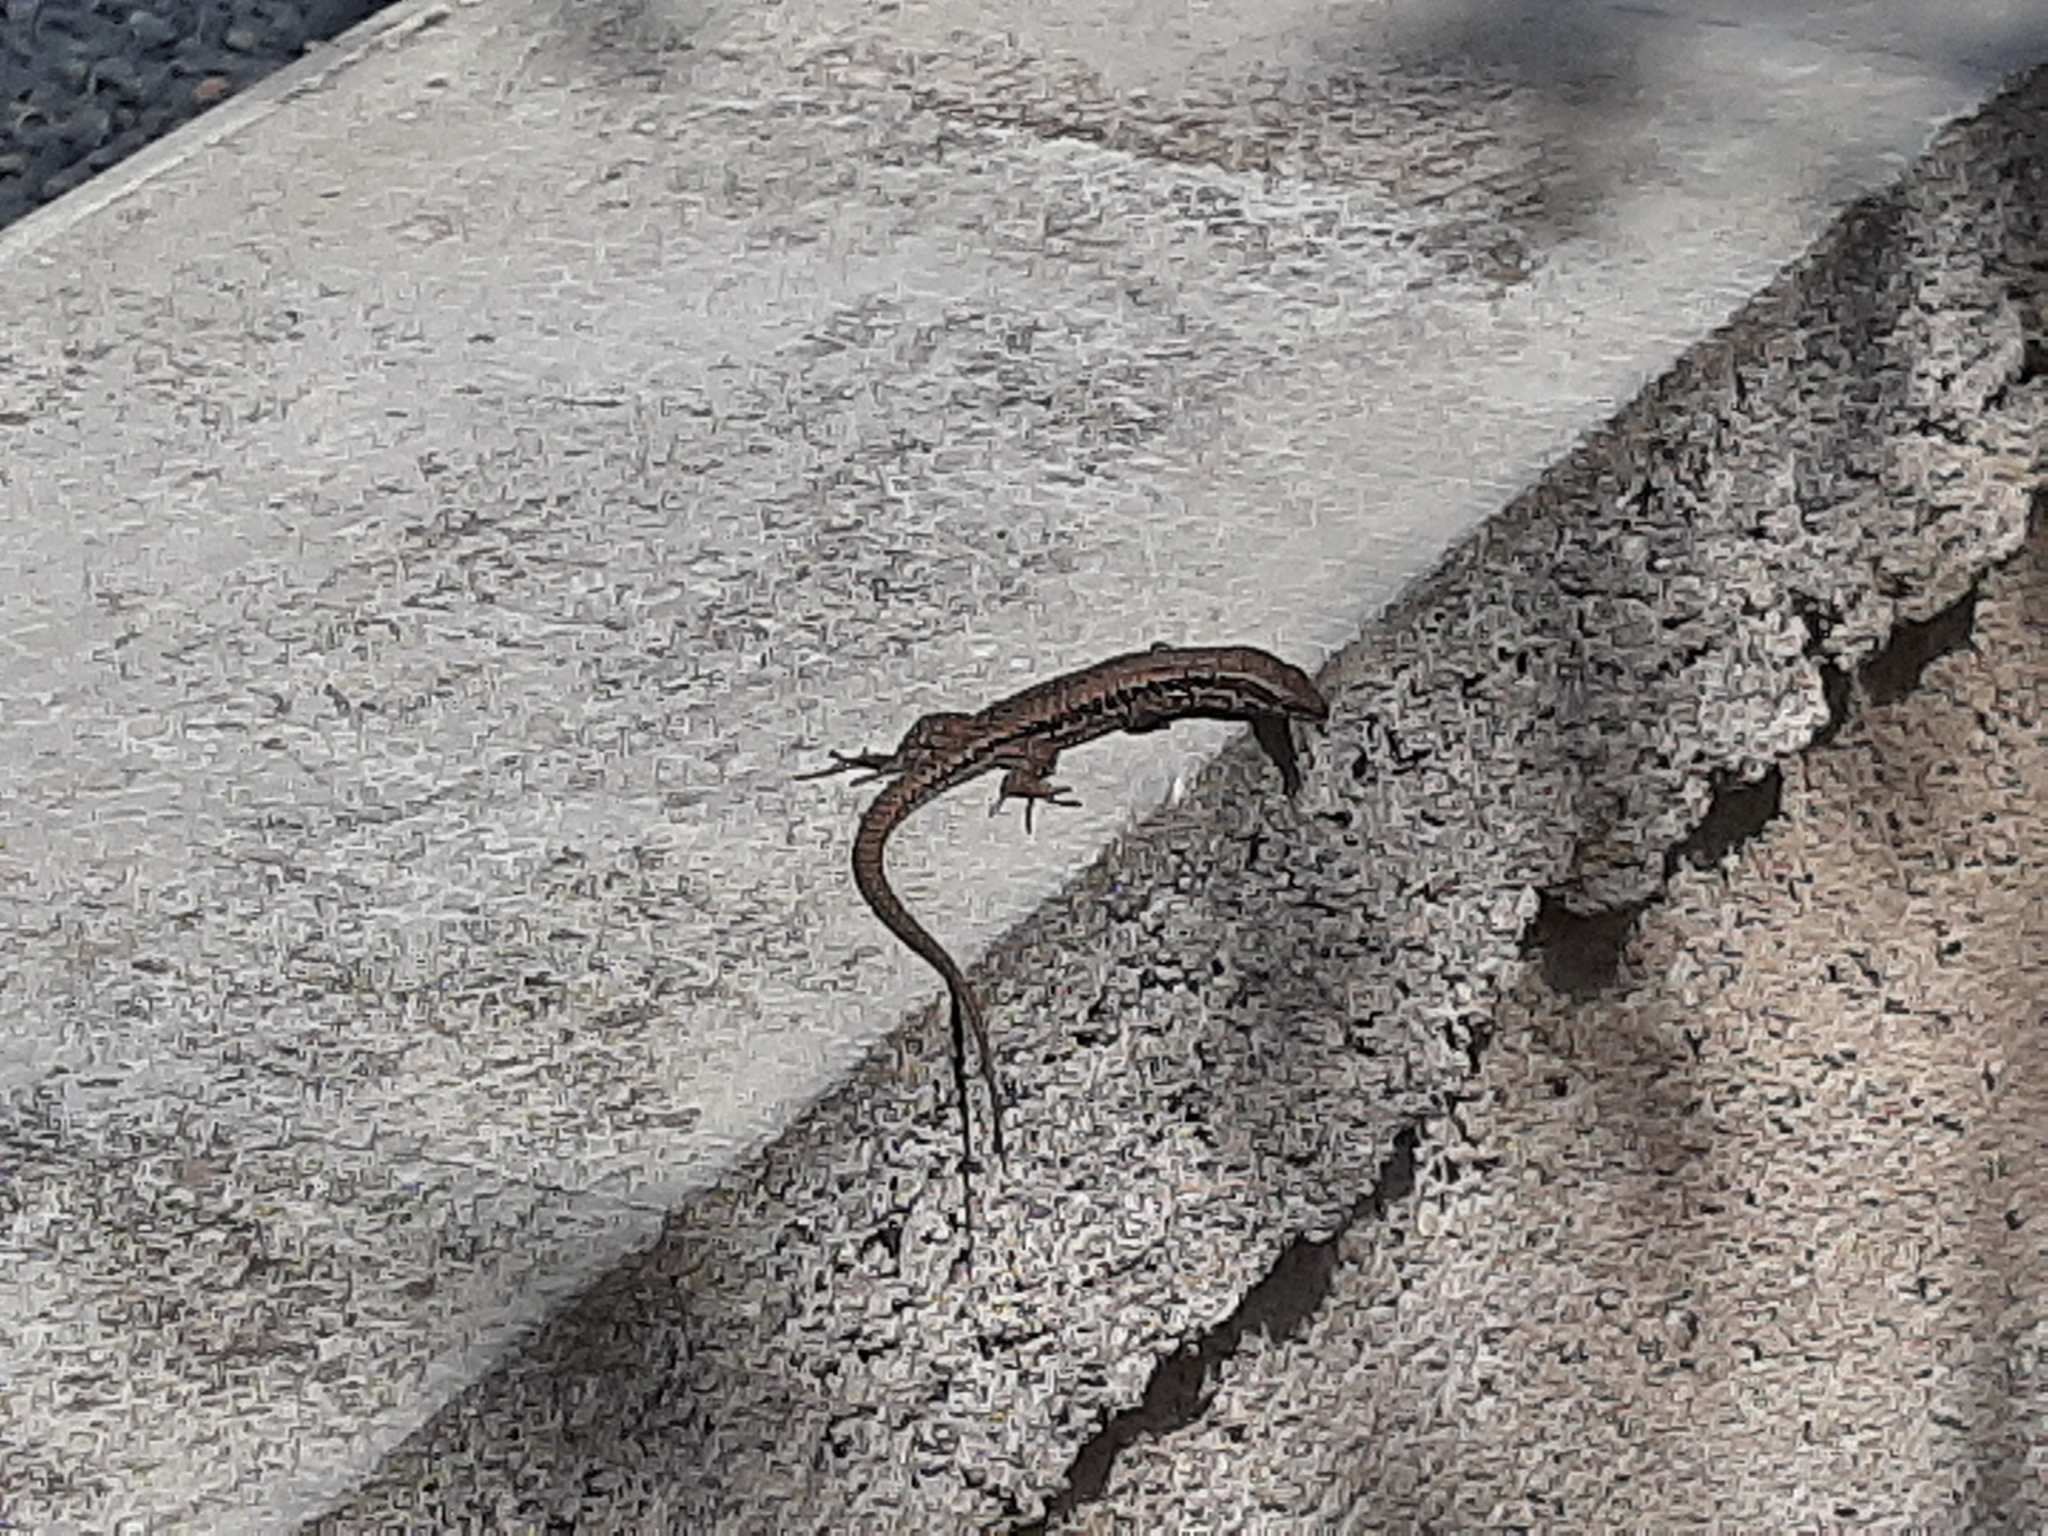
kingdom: Animalia
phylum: Chordata
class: Squamata
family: Lacertidae
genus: Podarcis
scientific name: Podarcis muralis
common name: Common wall lizard
